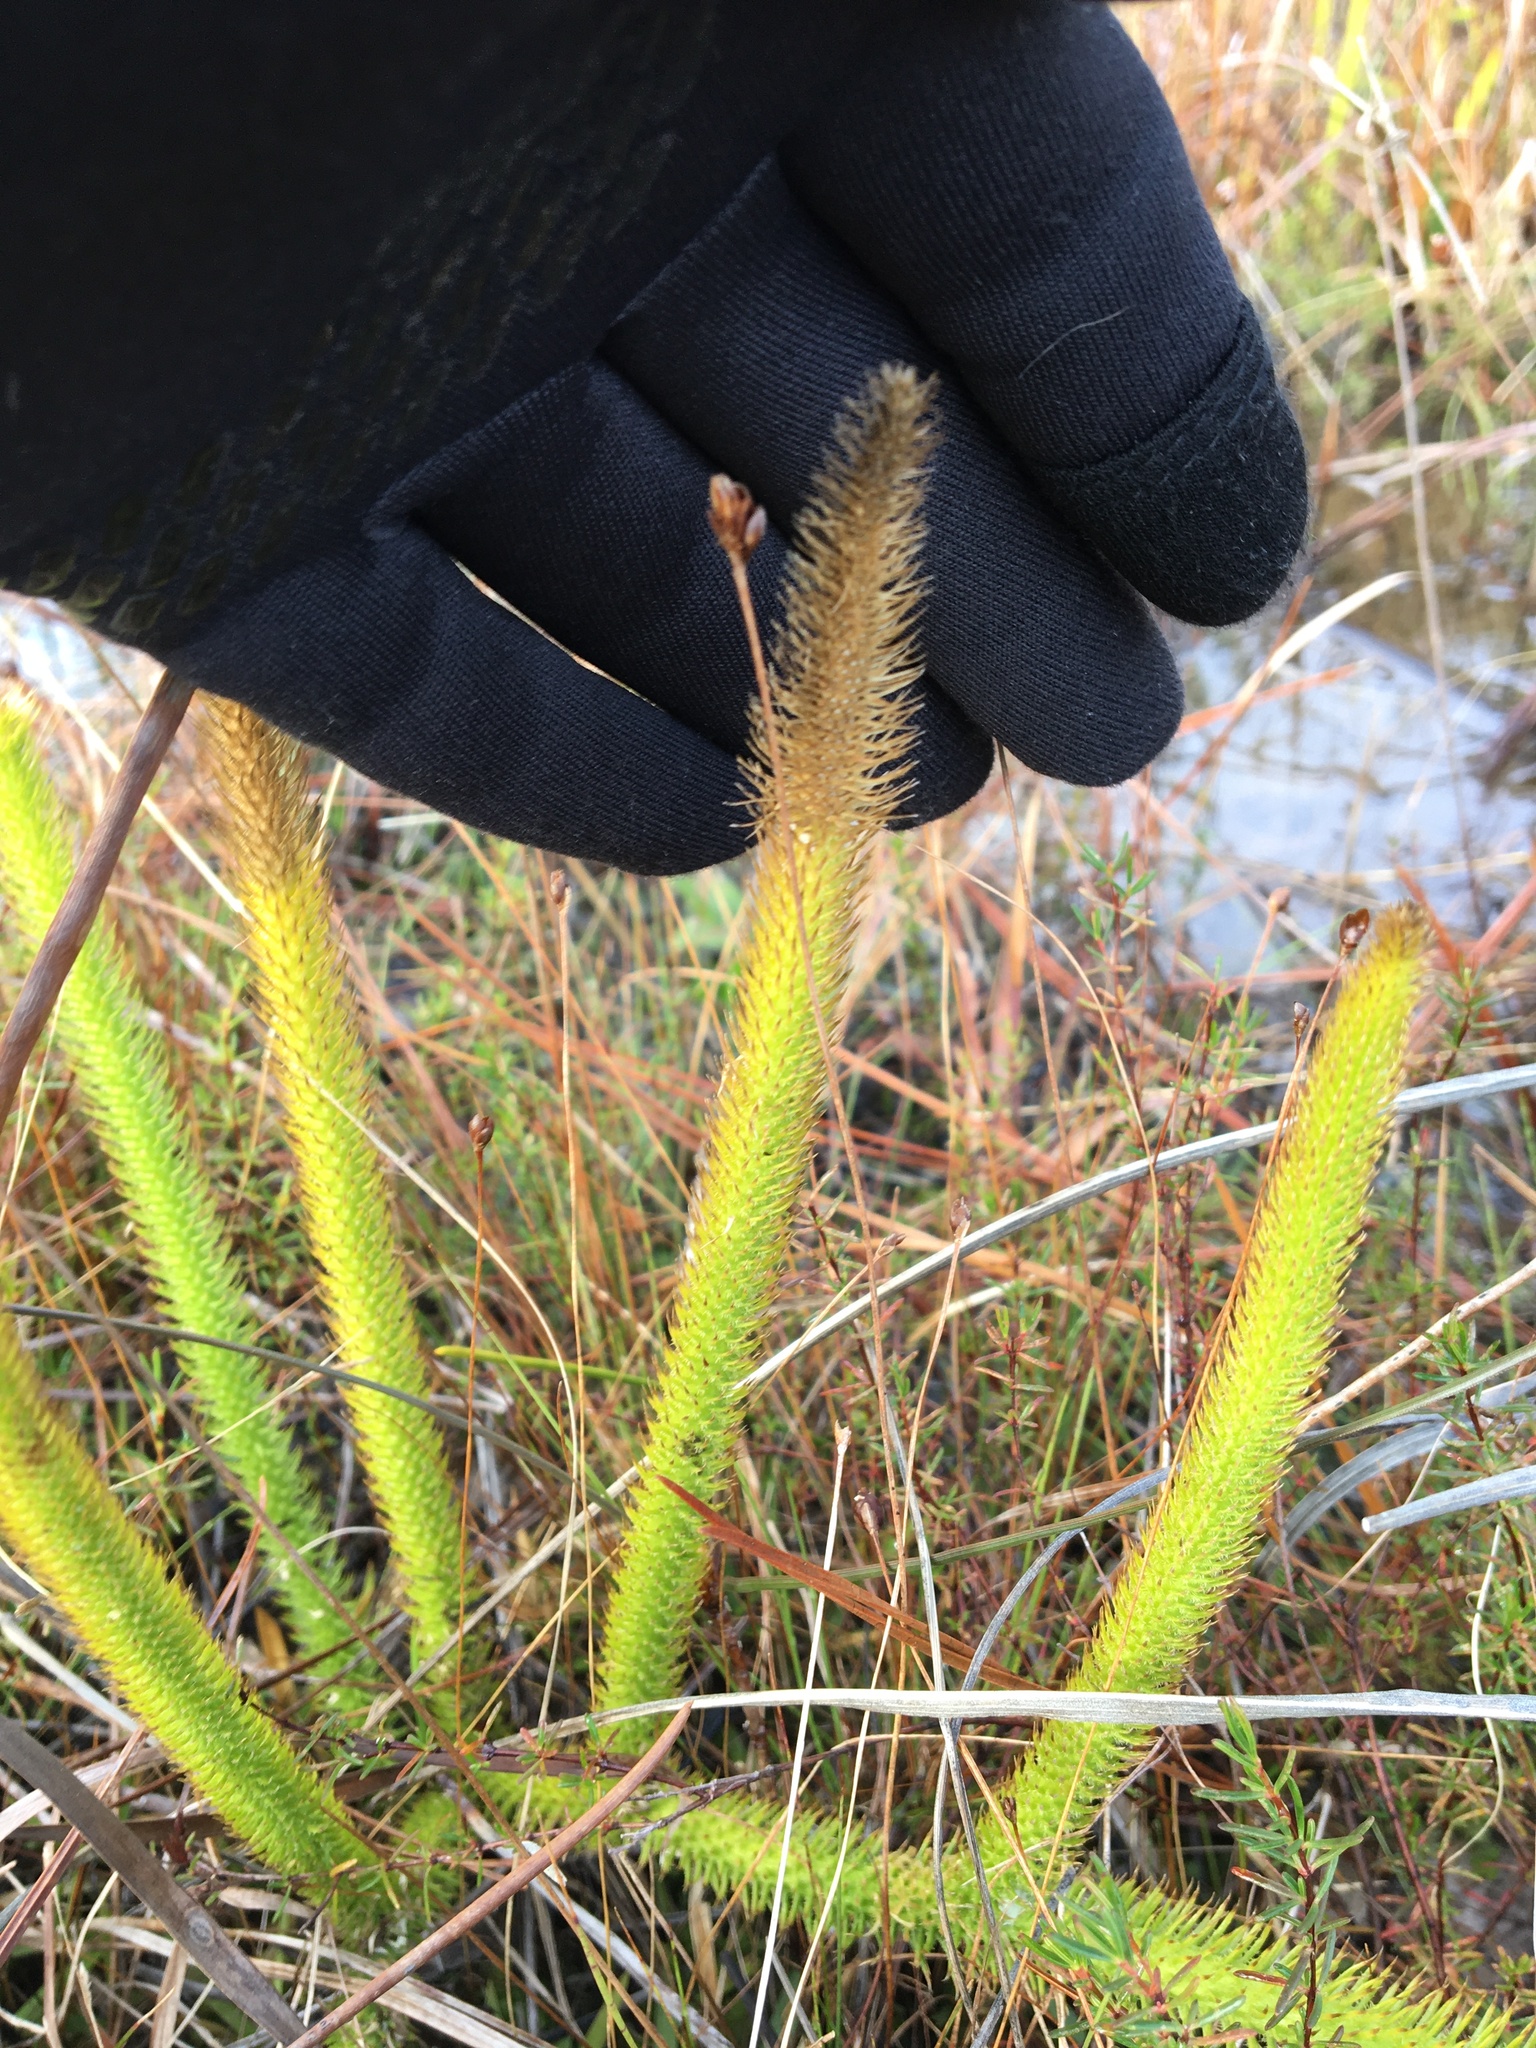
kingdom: Plantae
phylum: Tracheophyta
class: Lycopodiopsida
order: Lycopodiales
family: Lycopodiaceae
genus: Lycopodiella
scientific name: Lycopodiella alopecuroides
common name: Foxtail clubmoss
